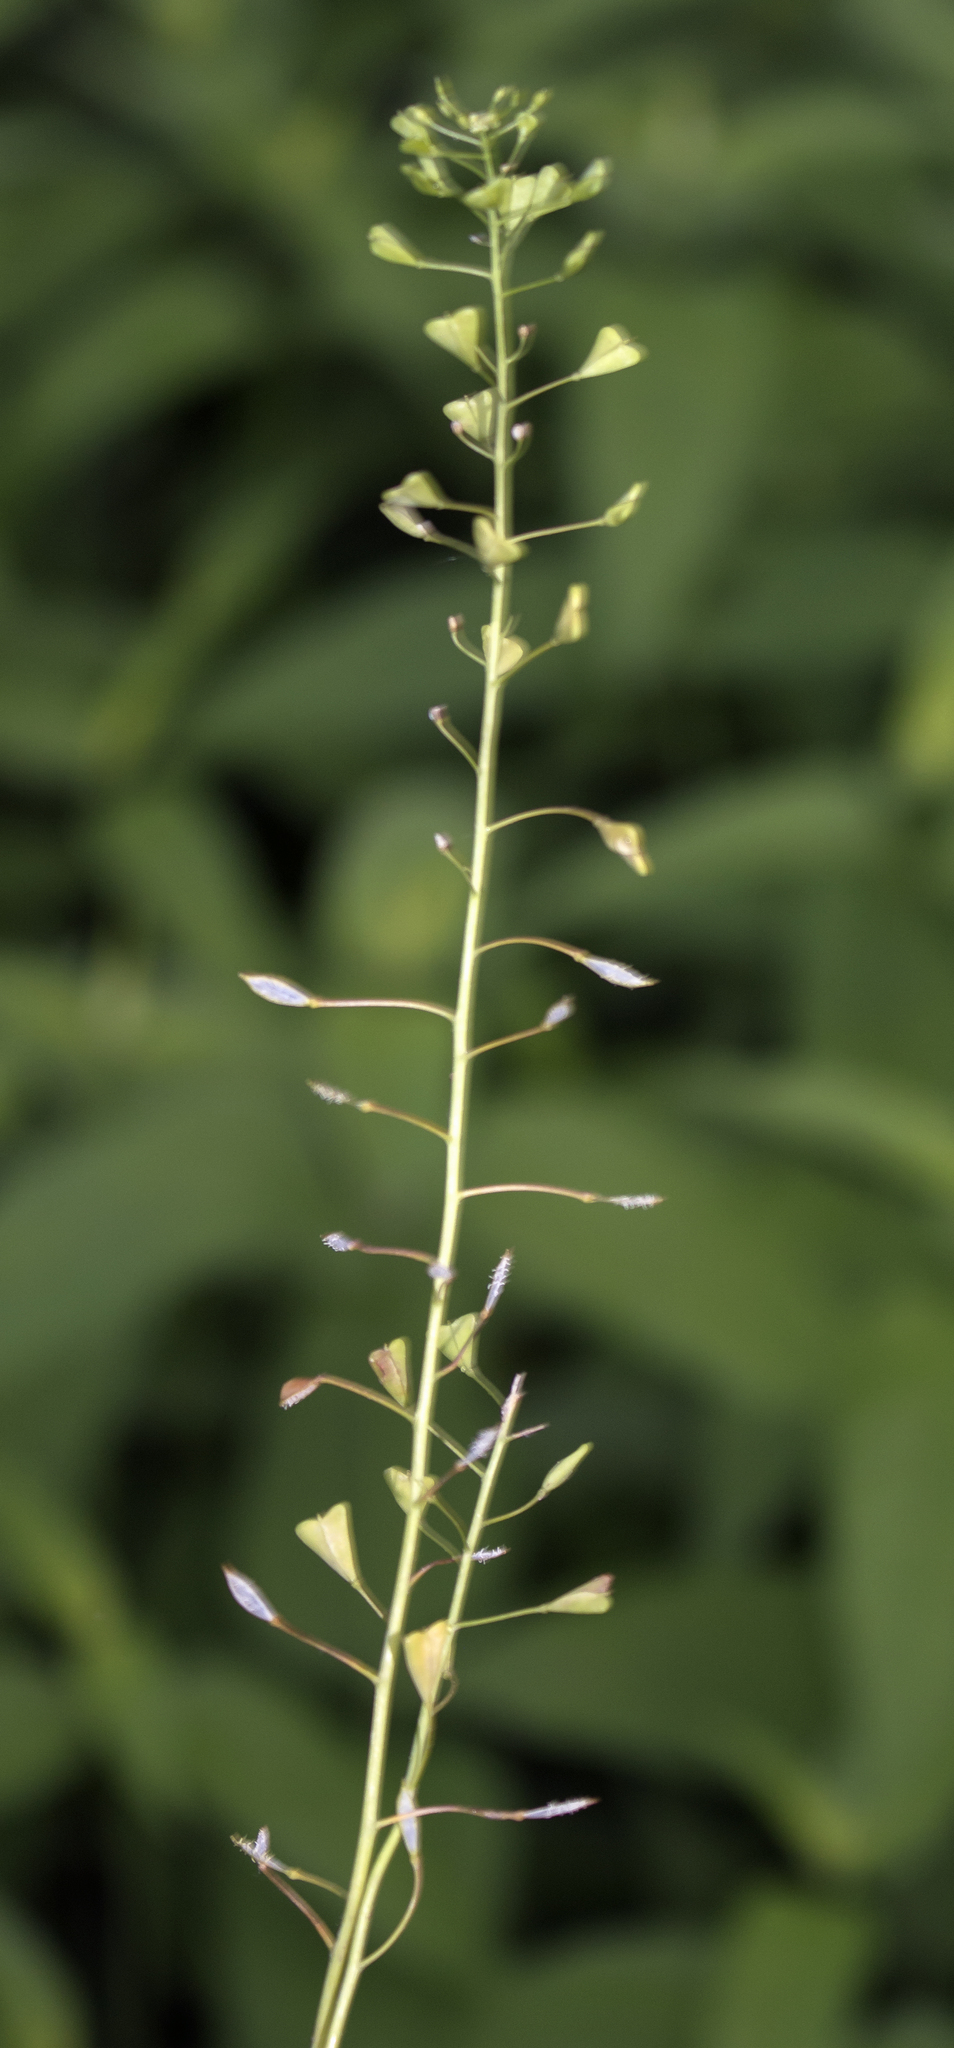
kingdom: Plantae
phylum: Tracheophyta
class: Magnoliopsida
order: Brassicales
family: Brassicaceae
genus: Capsella
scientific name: Capsella bursa-pastoris
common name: Shepherd's purse
